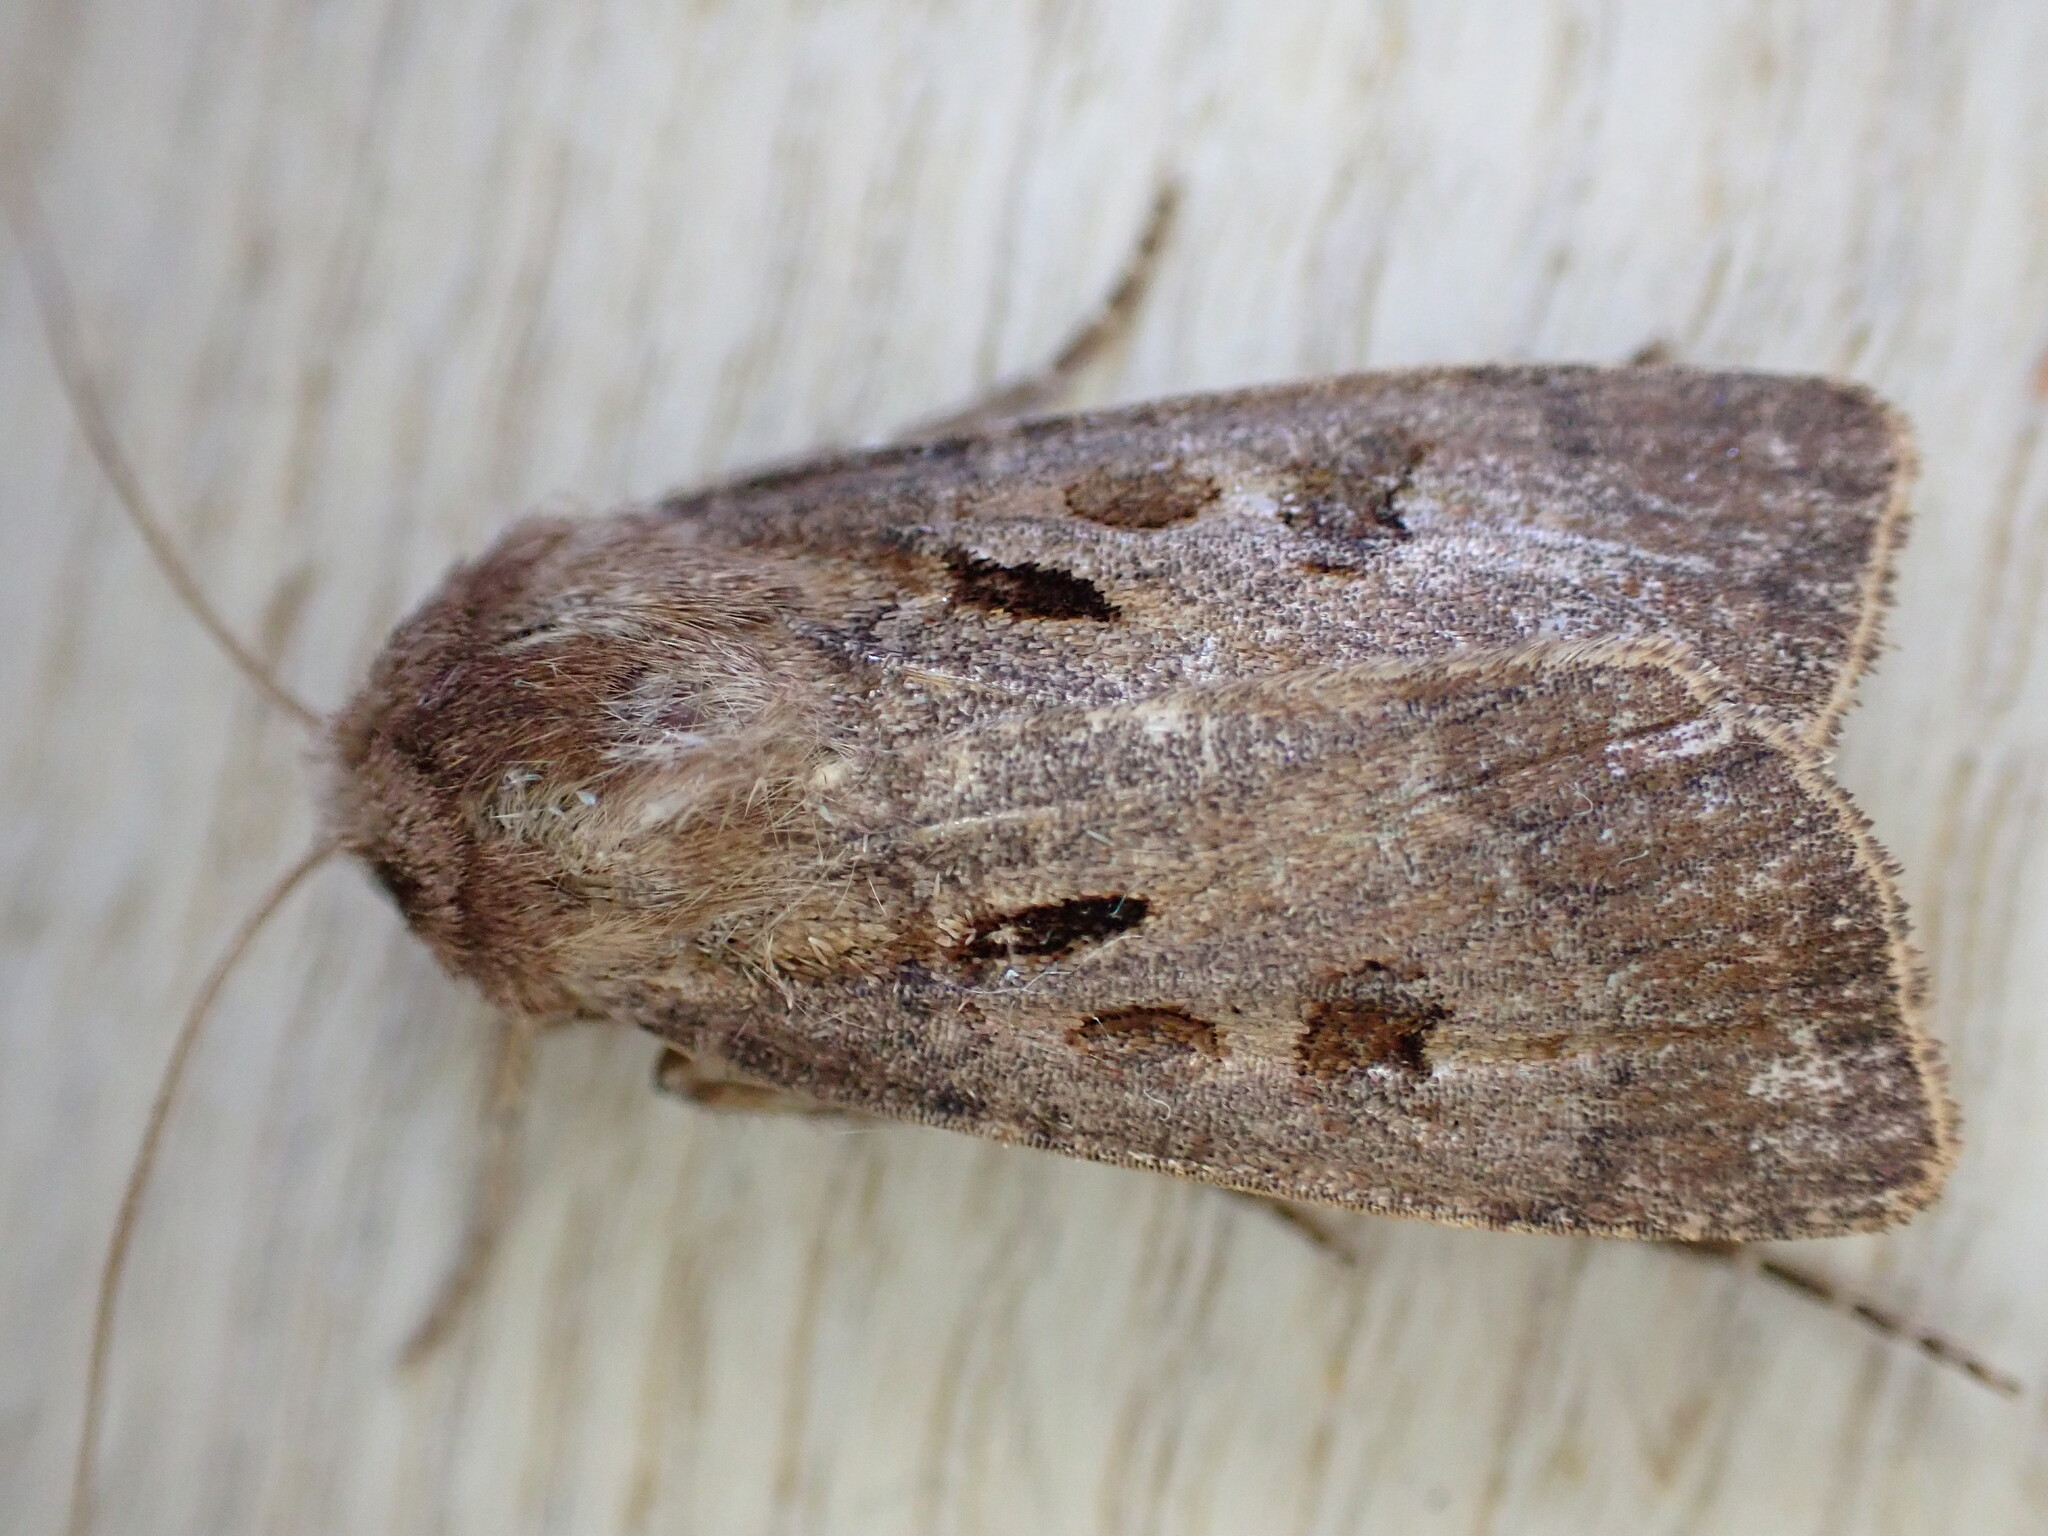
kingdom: Animalia
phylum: Arthropoda
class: Insecta
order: Lepidoptera
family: Noctuidae
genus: Agrotis
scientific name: Agrotis exclamationis
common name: Heart and dart
